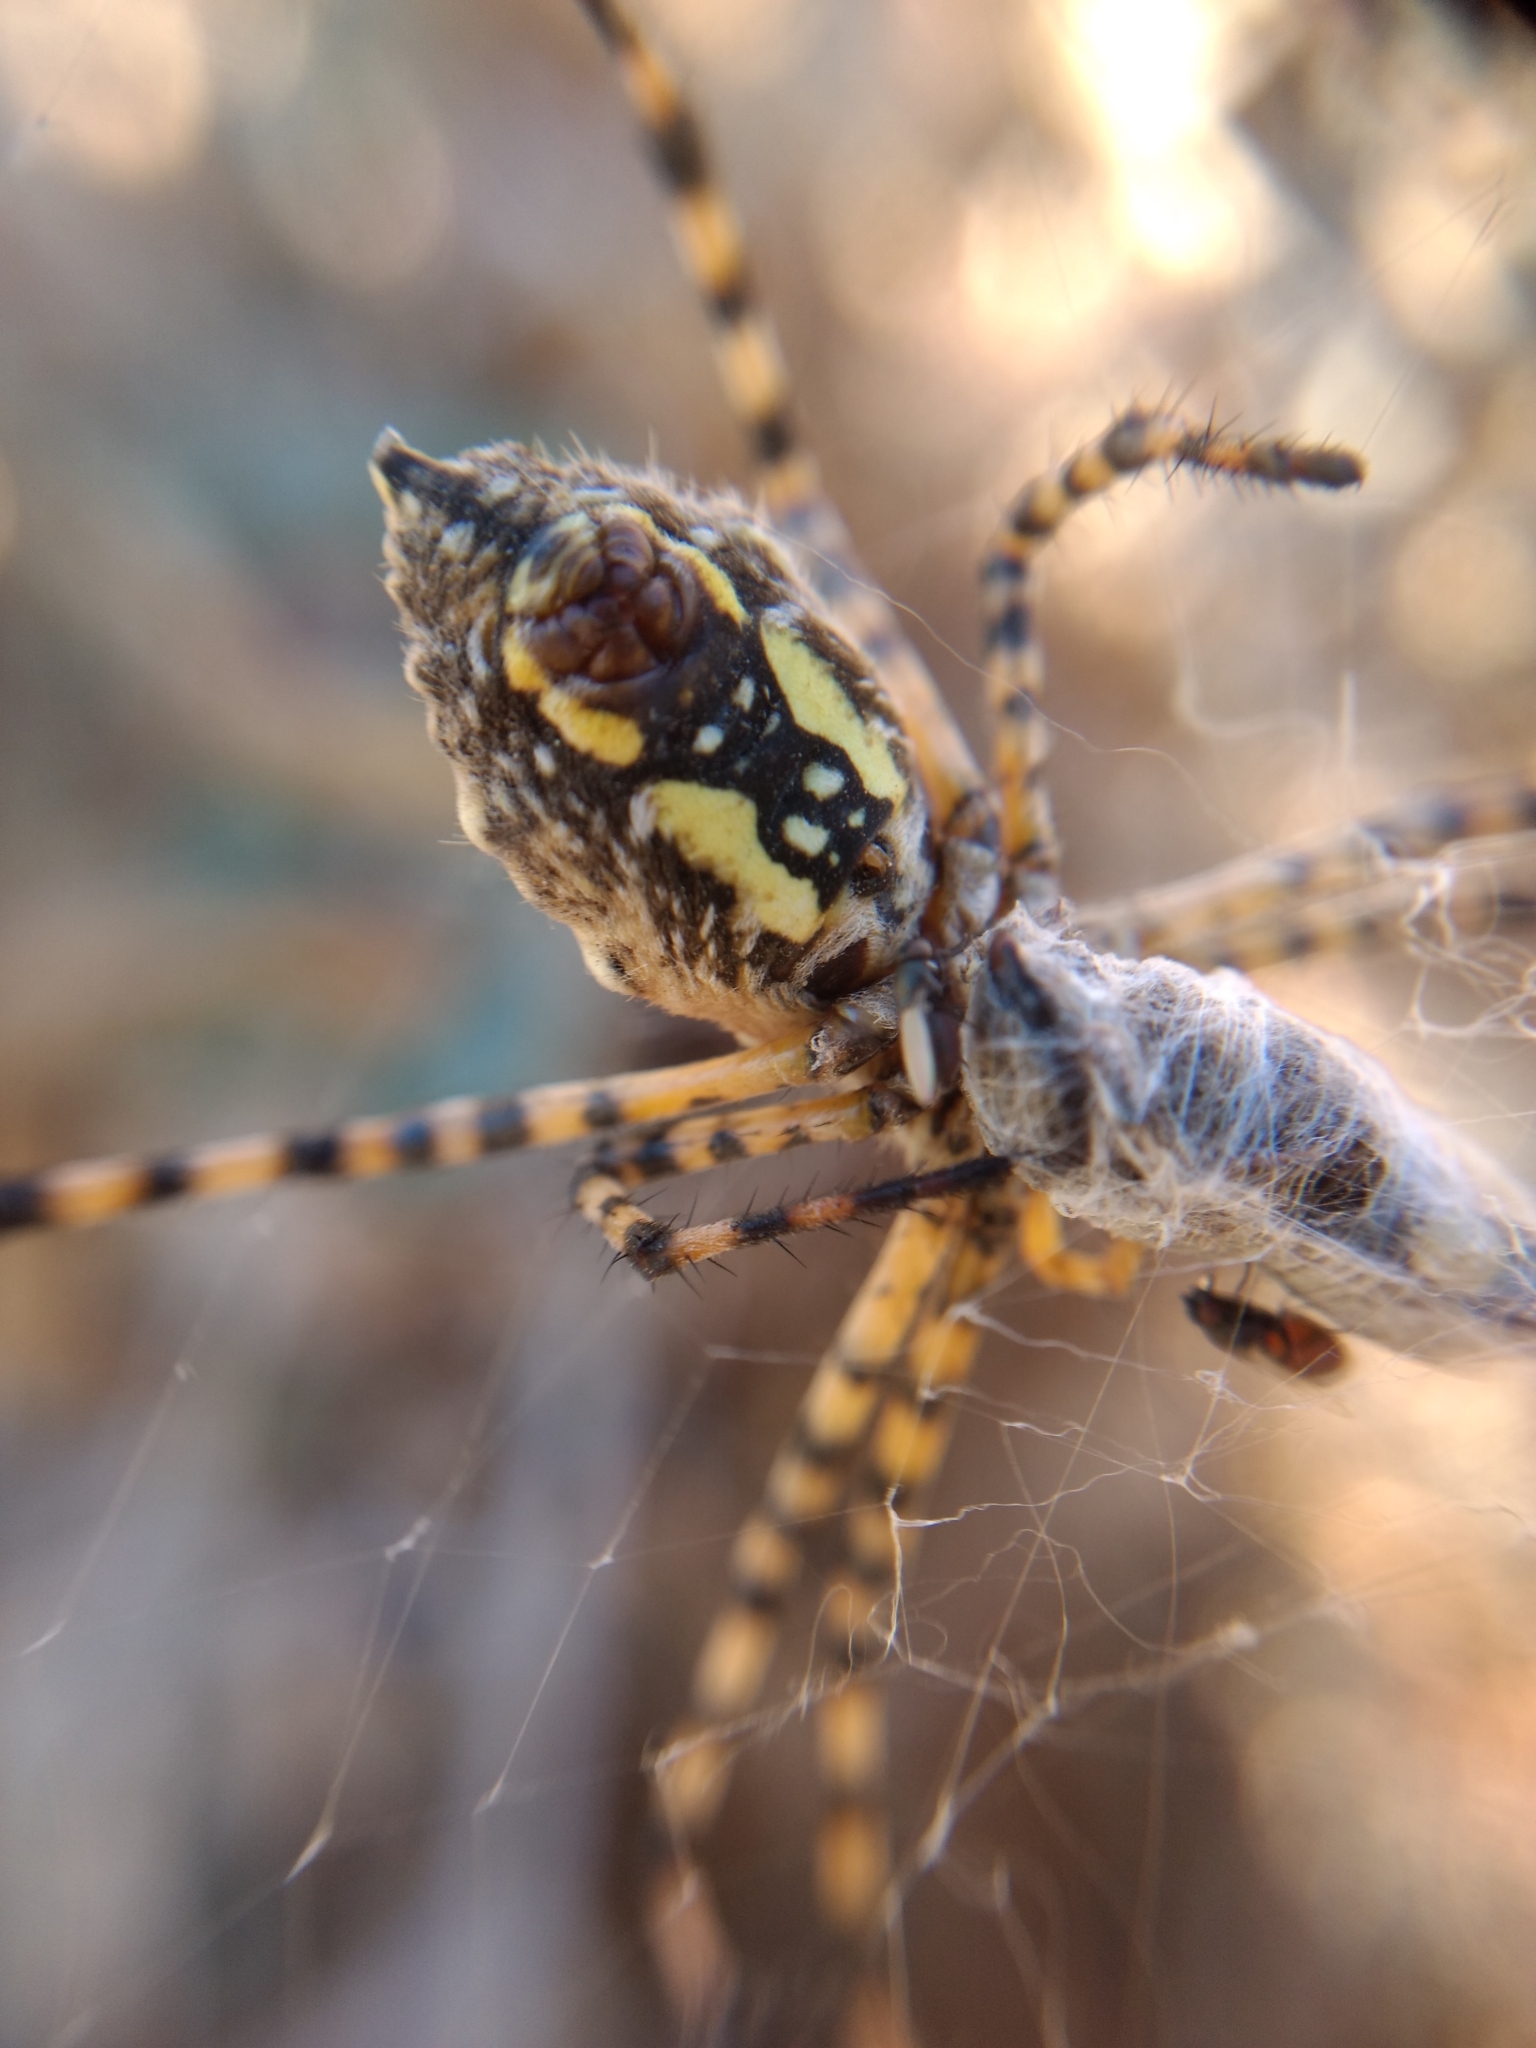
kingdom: Animalia
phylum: Arthropoda
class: Arachnida
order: Araneae
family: Araneidae
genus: Argiope
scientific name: Argiope trifasciata
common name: Banded garden spider
